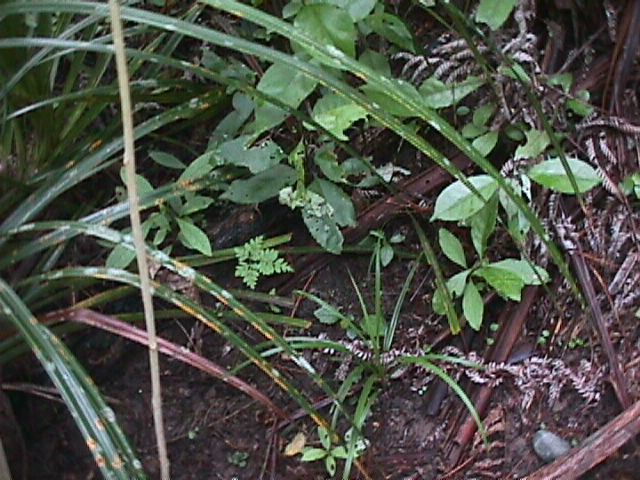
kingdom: Plantae
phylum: Tracheophyta
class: Liliopsida
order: Pandanales
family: Pandanaceae
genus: Freycinetia
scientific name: Freycinetia banksii
